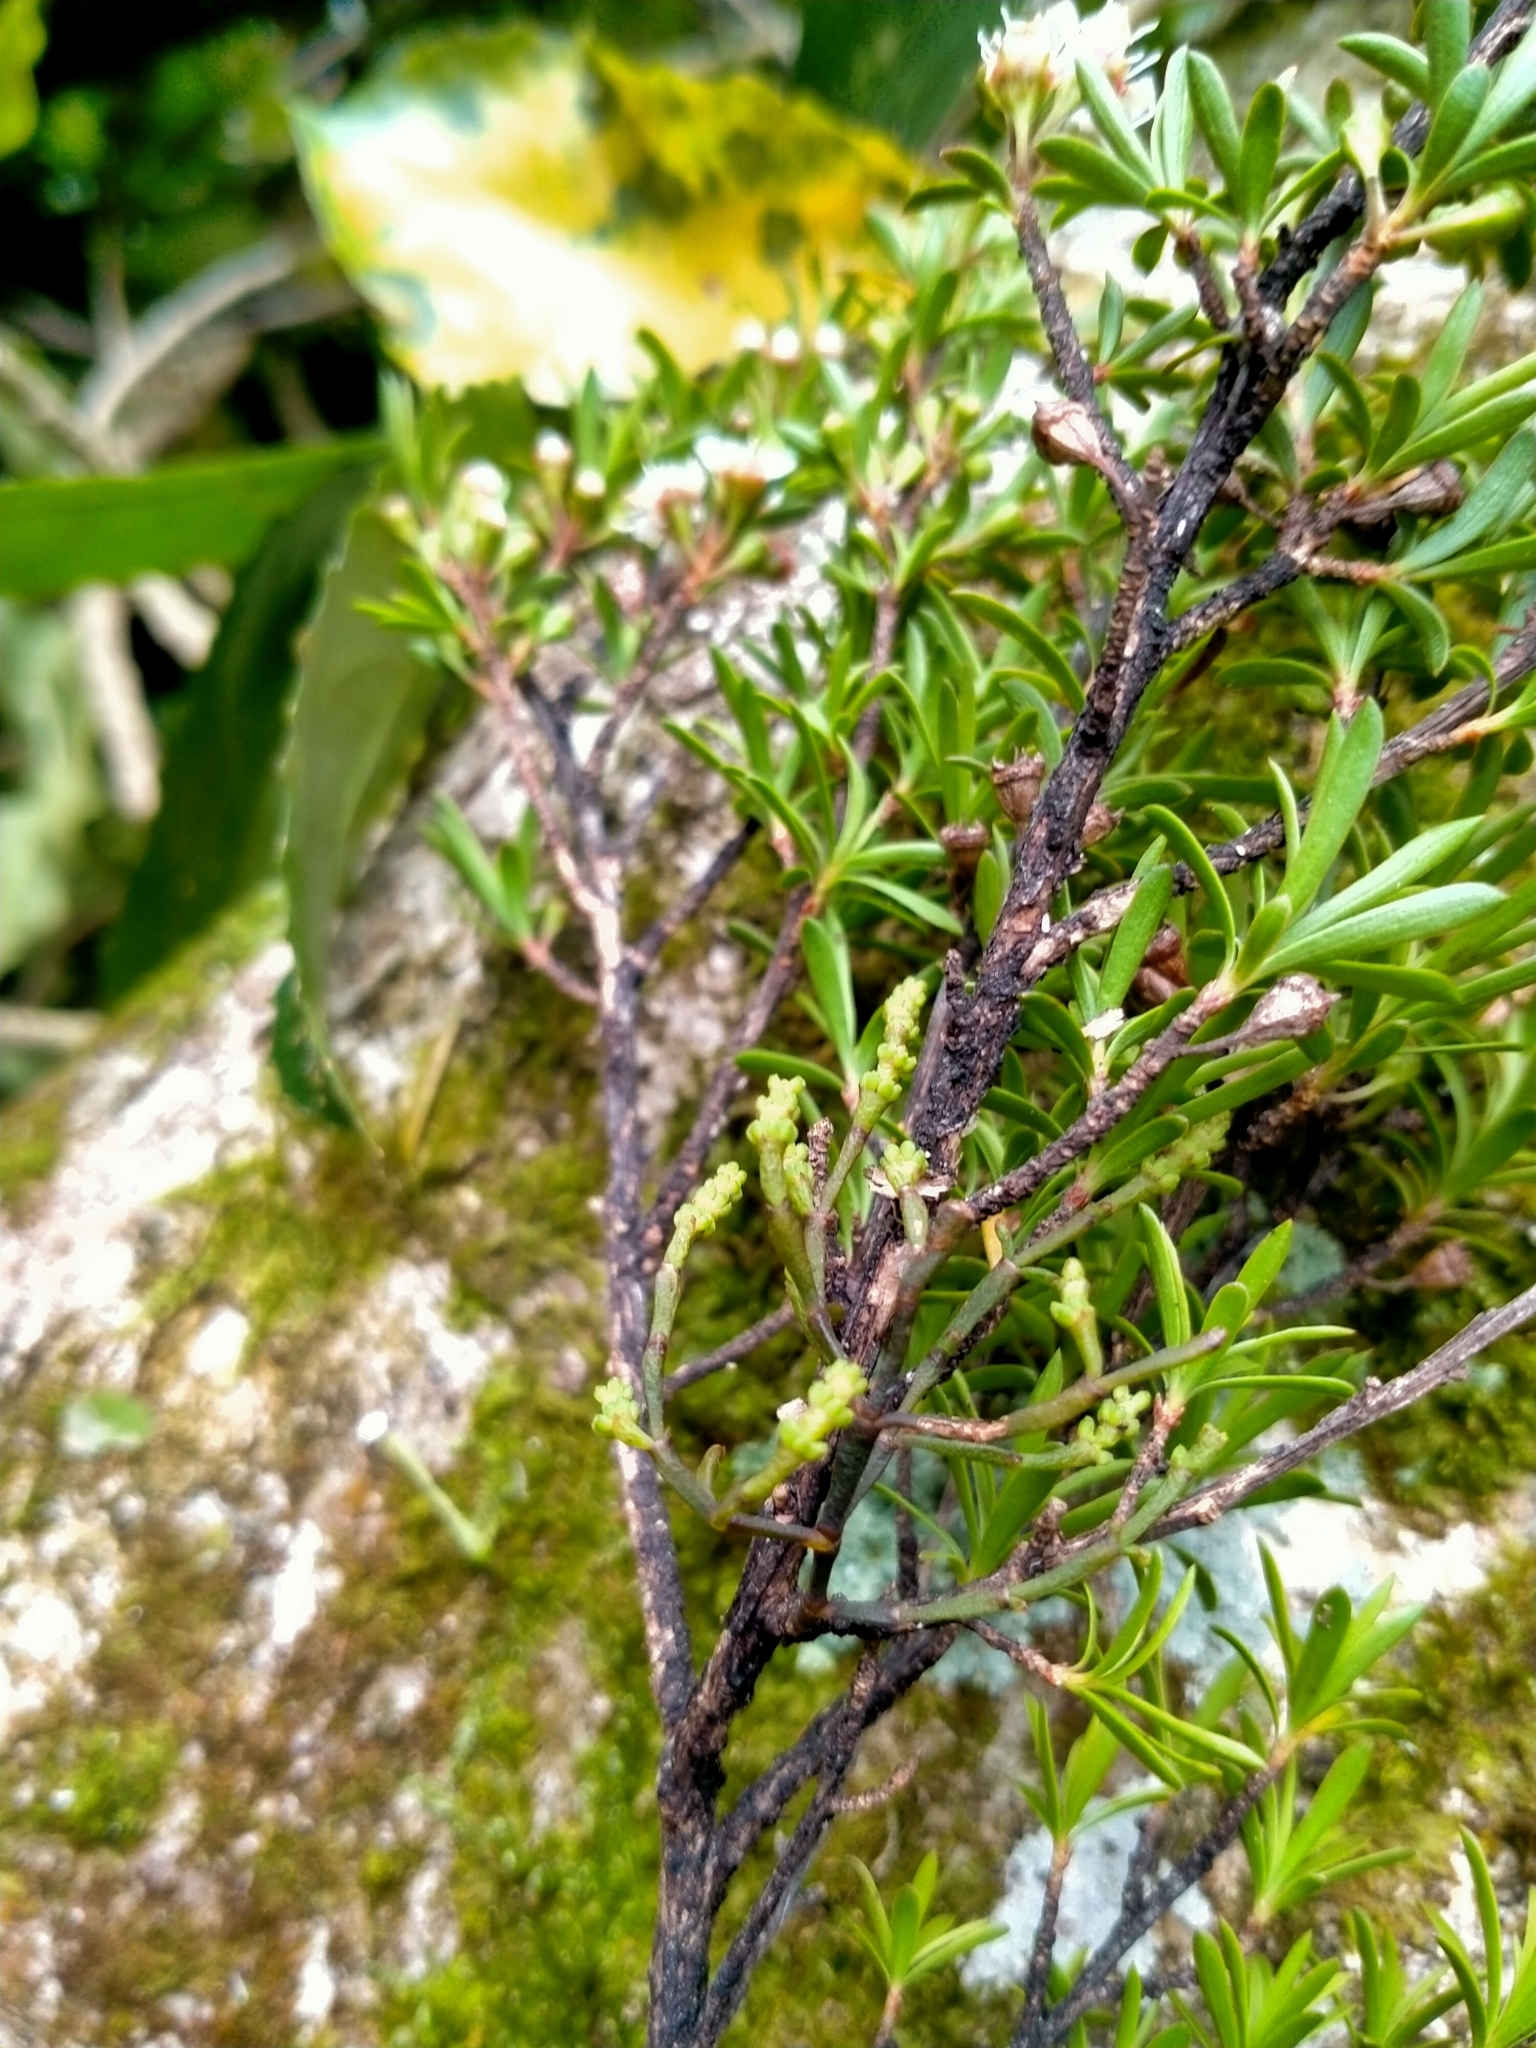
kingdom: Plantae
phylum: Tracheophyta
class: Magnoliopsida
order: Santalales
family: Viscaceae
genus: Korthalsella
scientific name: Korthalsella salicornioides
